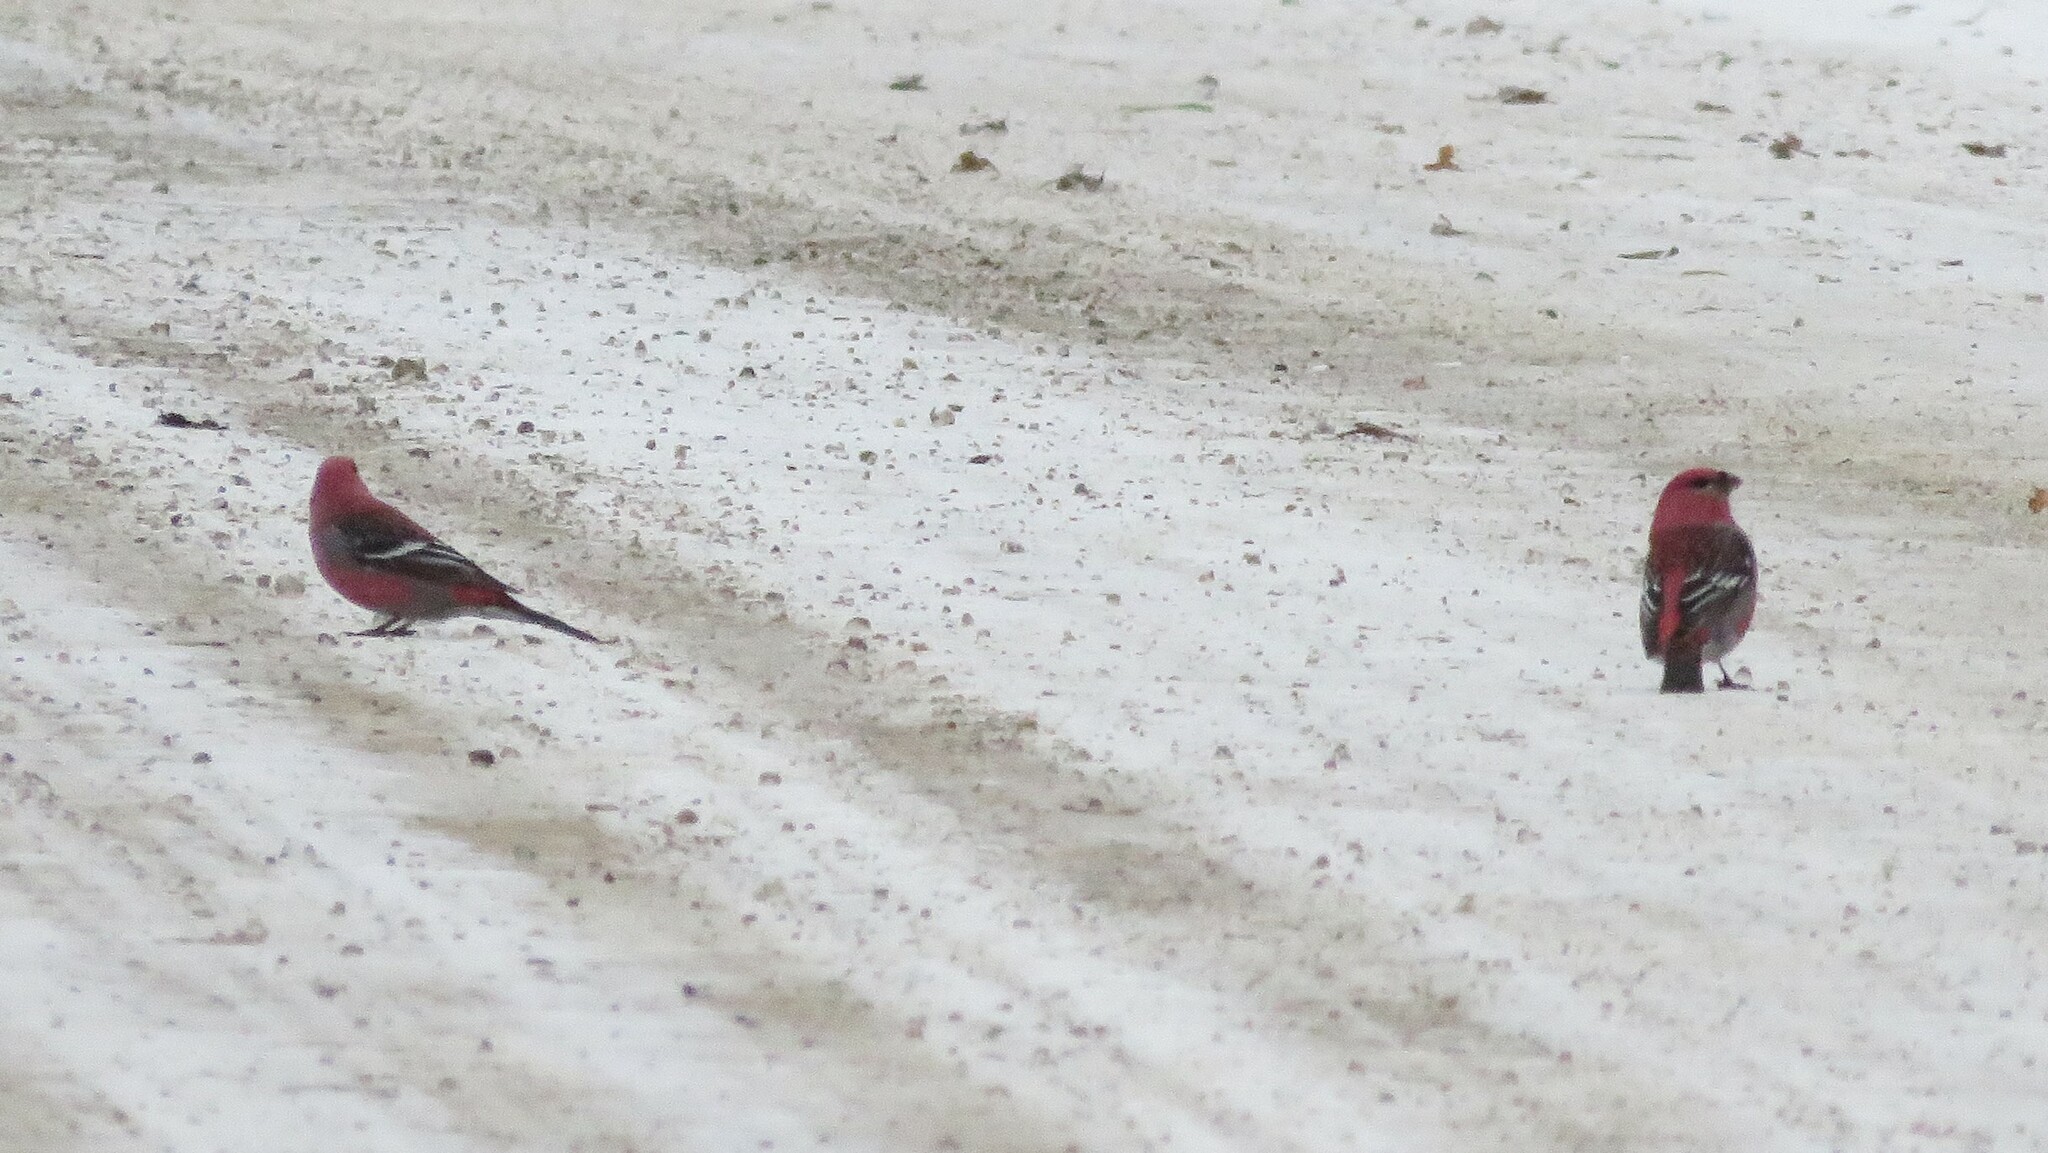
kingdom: Animalia
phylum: Chordata
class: Aves
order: Passeriformes
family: Fringillidae
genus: Pinicola
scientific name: Pinicola enucleator
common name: Pine grosbeak
